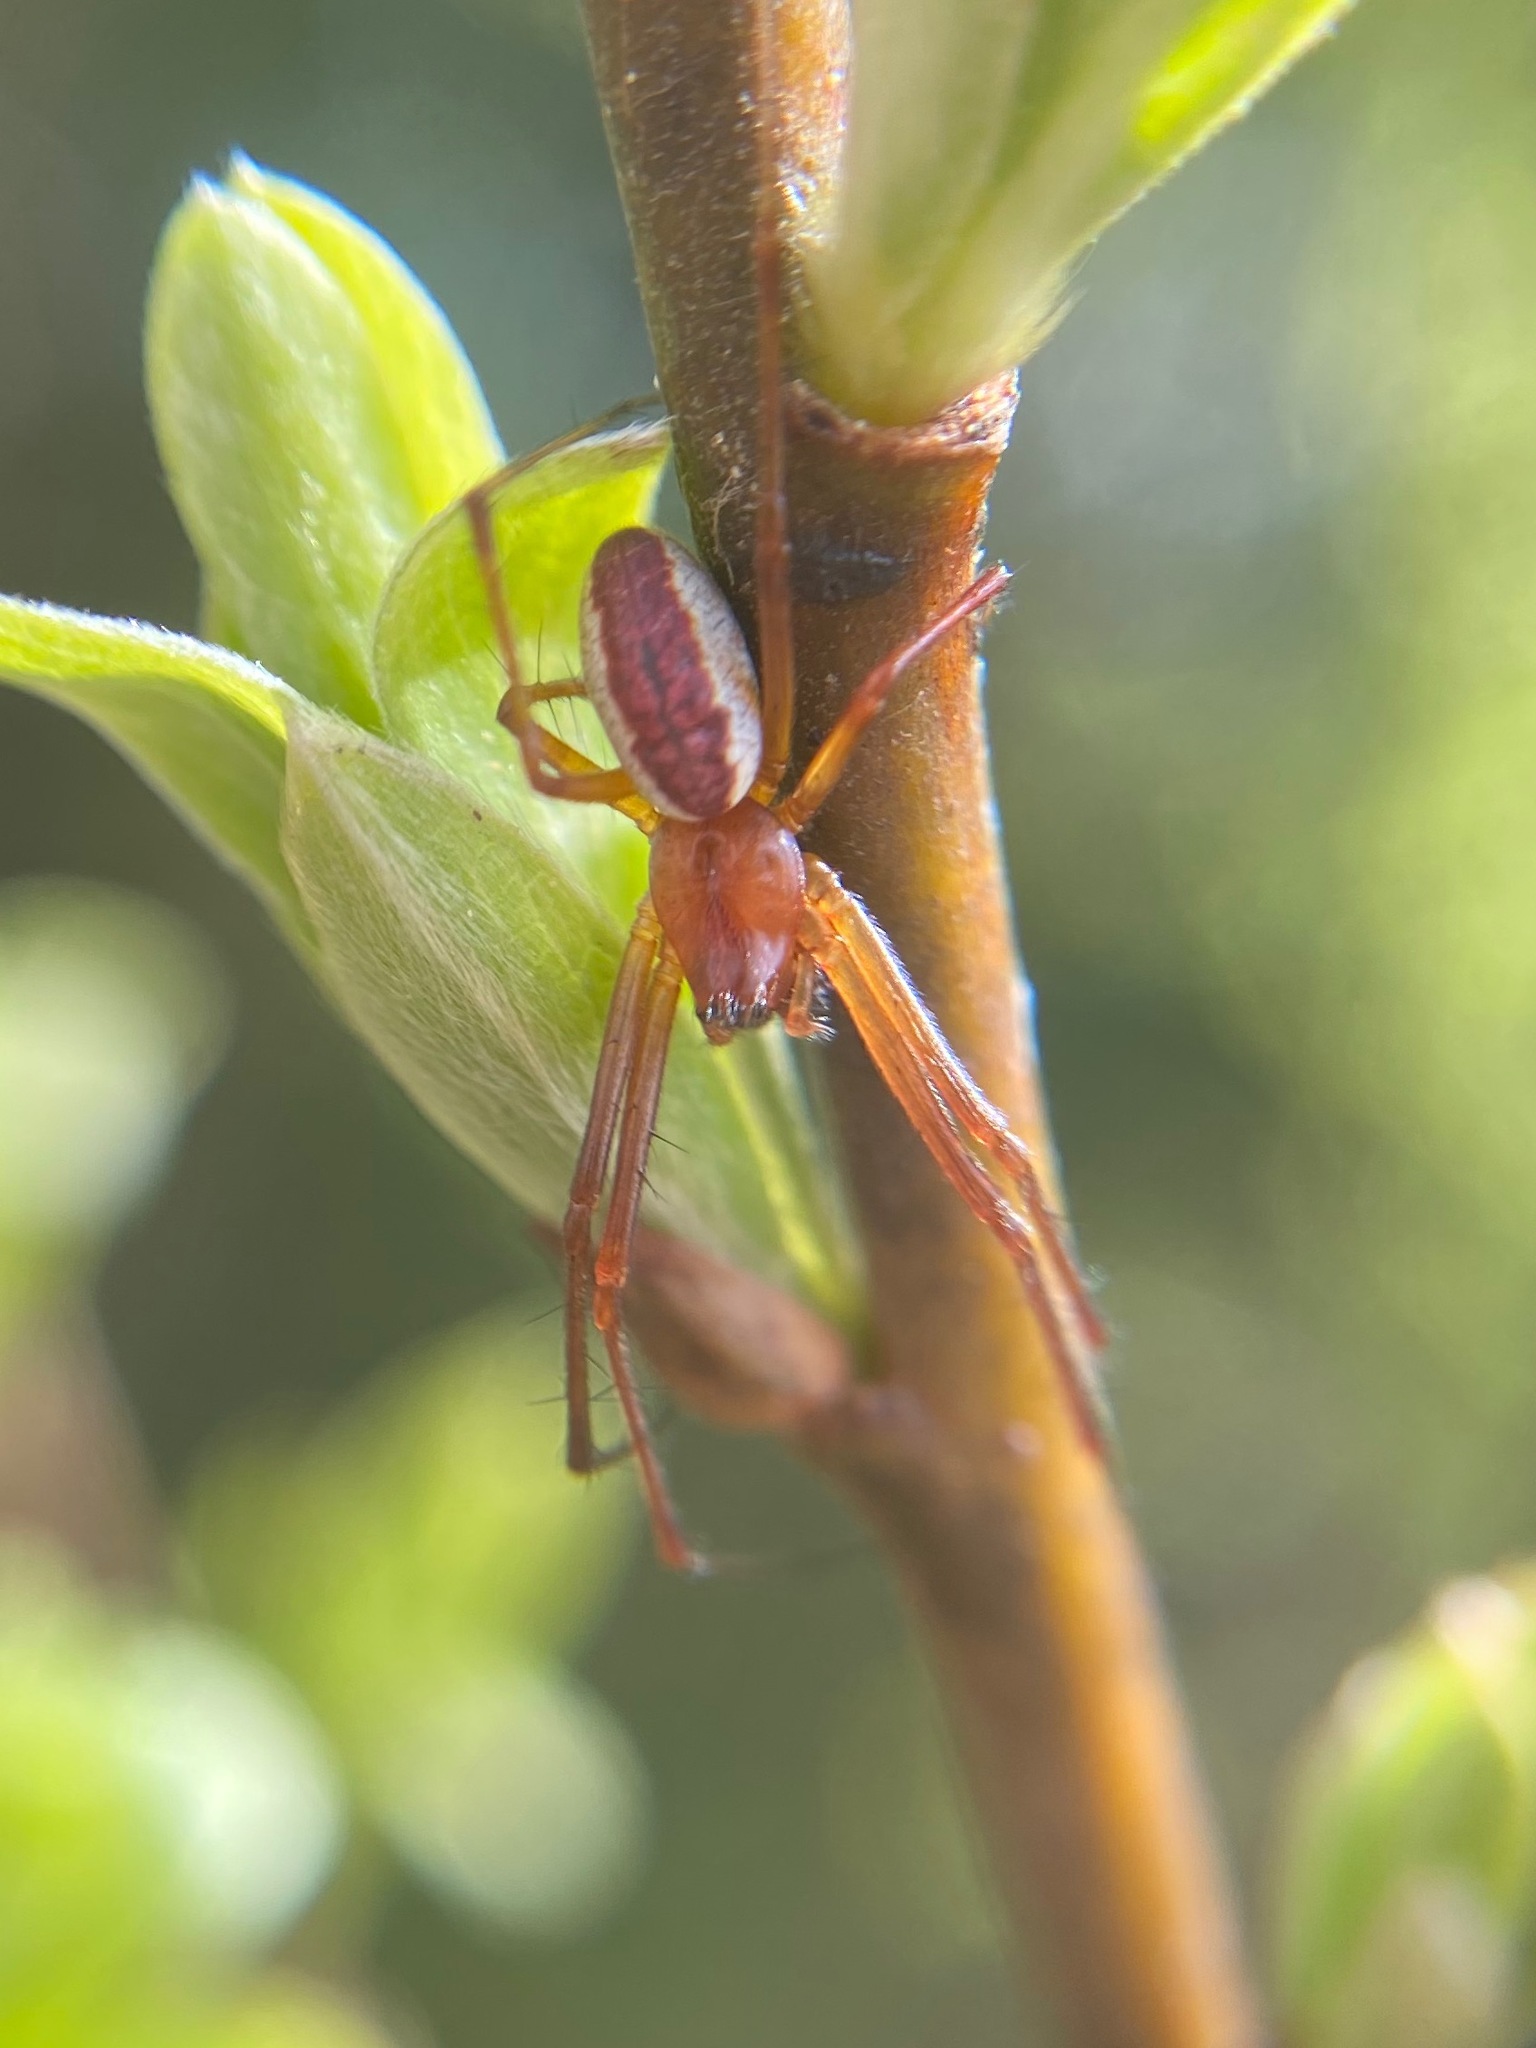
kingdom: Animalia
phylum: Arthropoda
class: Arachnida
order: Araneae
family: Linyphiidae
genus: Pityohyphantes
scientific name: Pityohyphantes rubrofasciatus
